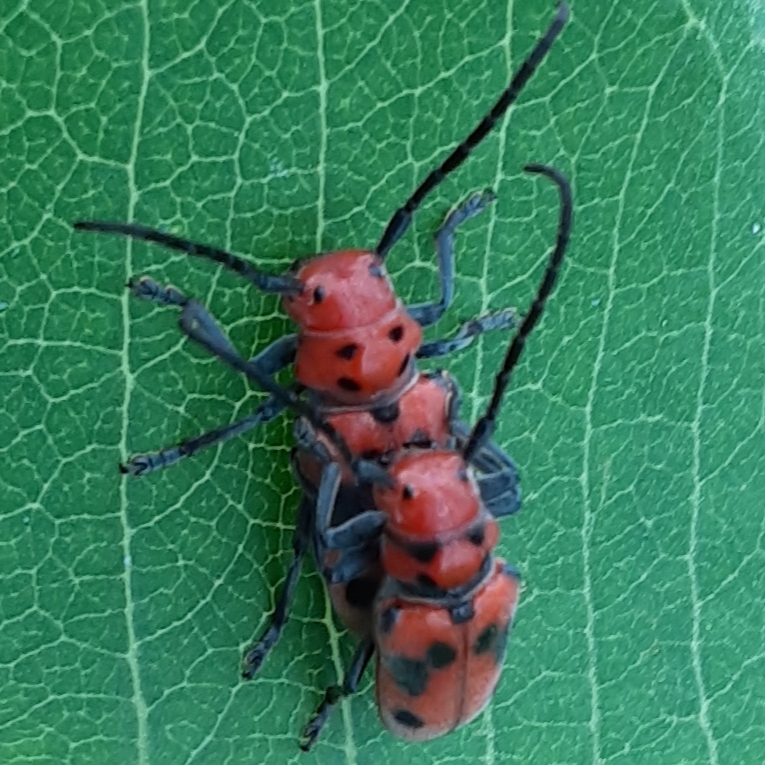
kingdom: Animalia
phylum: Arthropoda
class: Insecta
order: Coleoptera
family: Cerambycidae
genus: Tetraopes
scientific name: Tetraopes tetrophthalmus
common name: Red milkweed beetle
